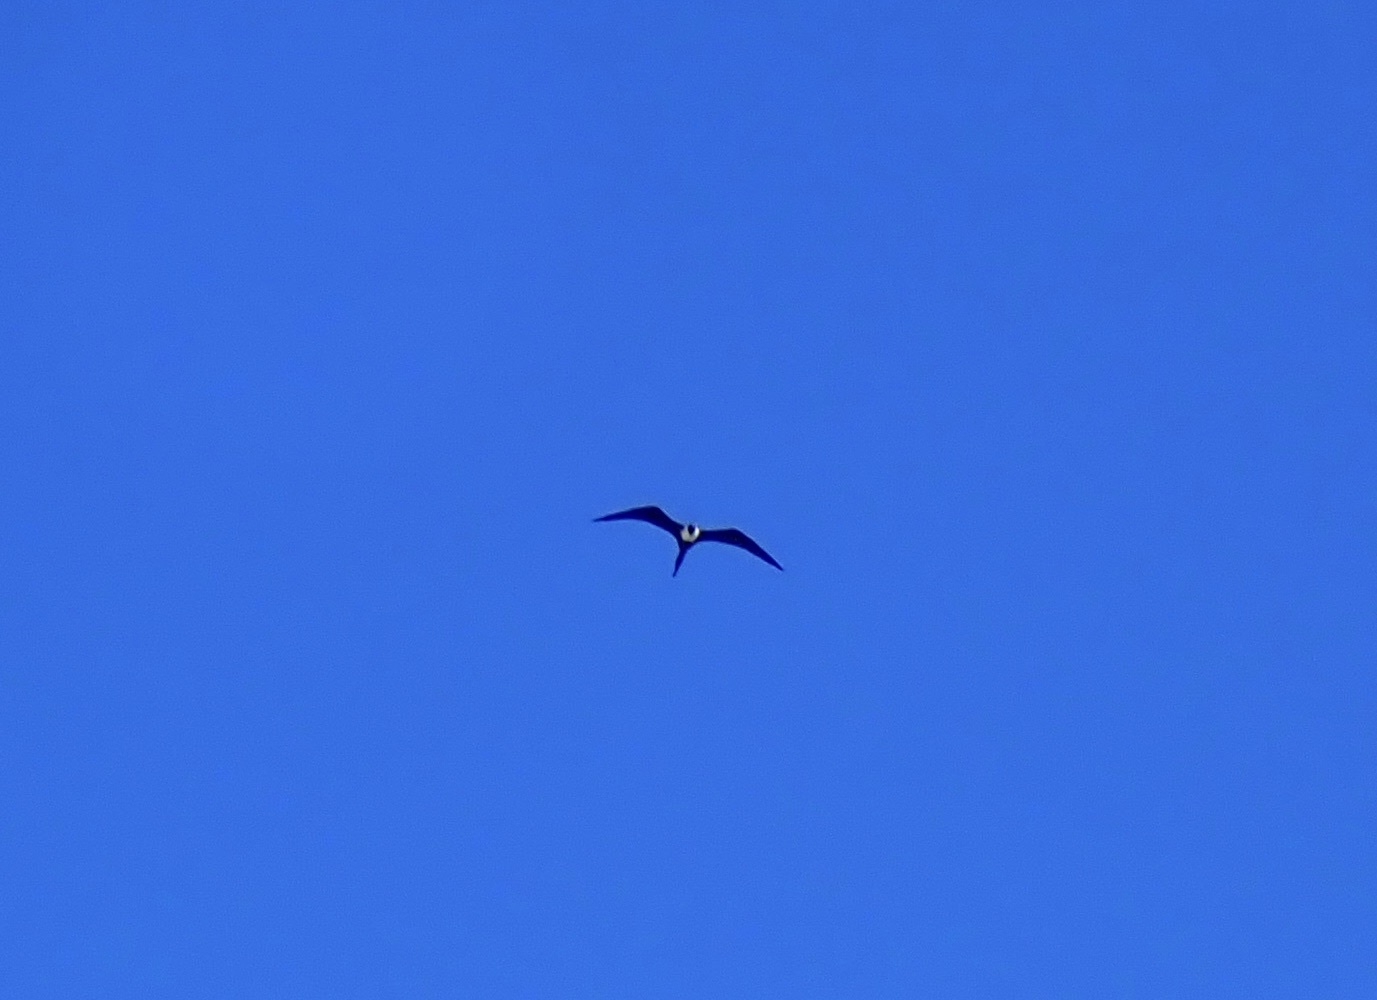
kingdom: Animalia
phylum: Chordata
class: Aves
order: Suliformes
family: Fregatidae
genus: Fregata
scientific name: Fregata magnificens
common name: Magnificent frigatebird
